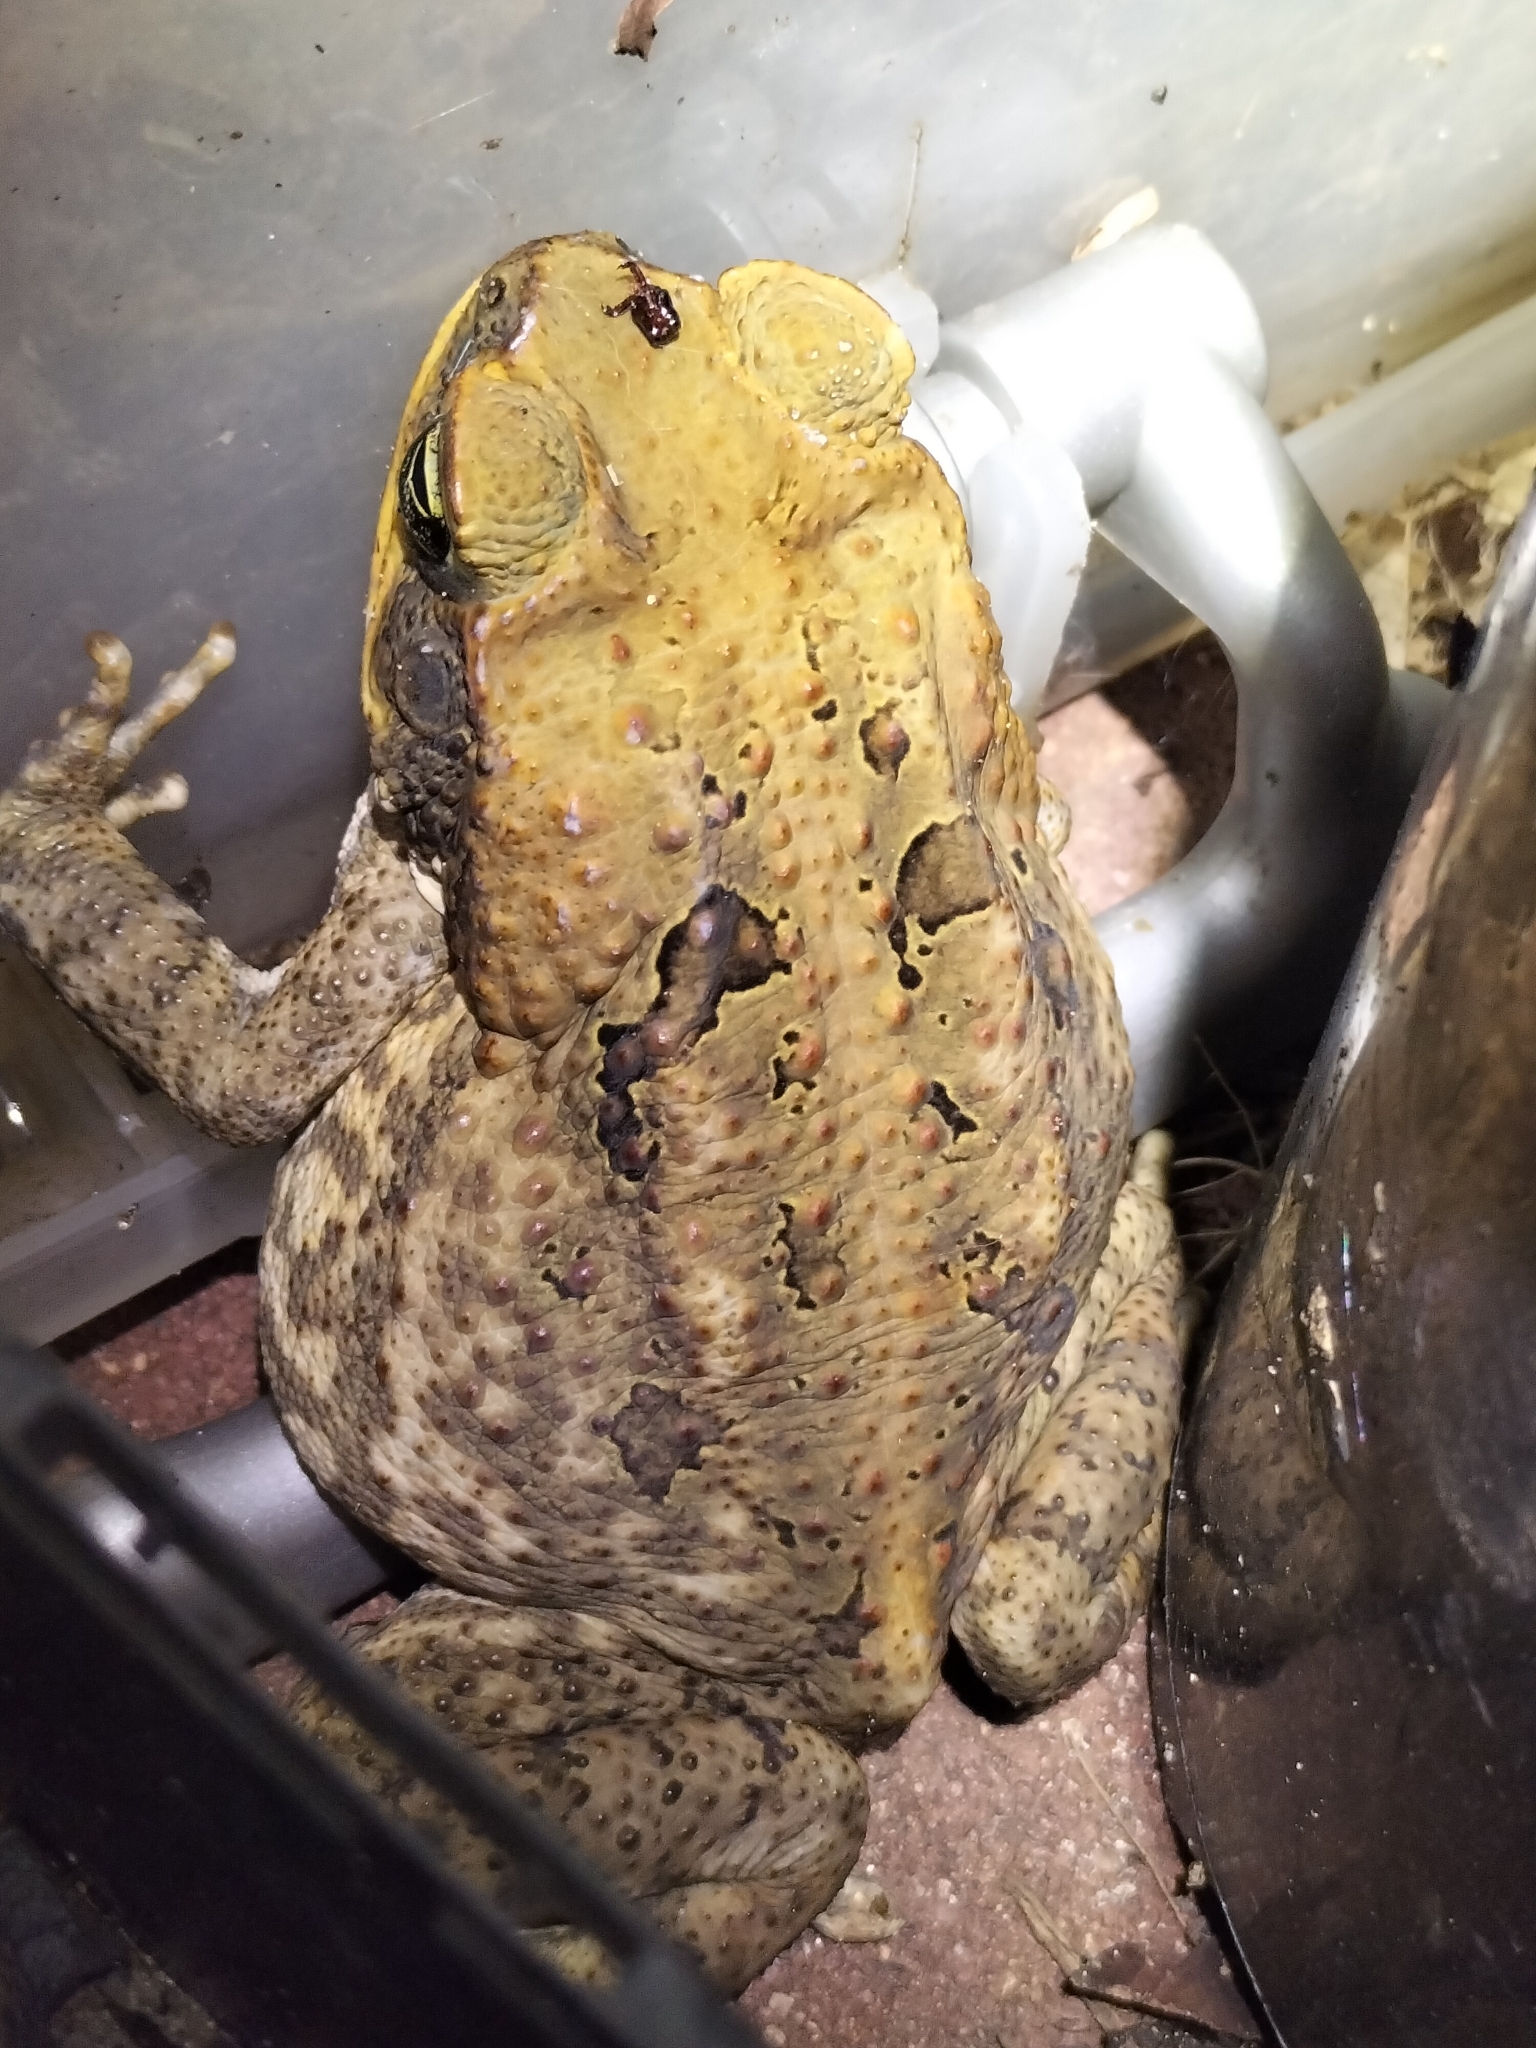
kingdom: Animalia
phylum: Chordata
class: Amphibia
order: Anura
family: Bufonidae
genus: Rhinella
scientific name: Rhinella marina
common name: Cane toad
